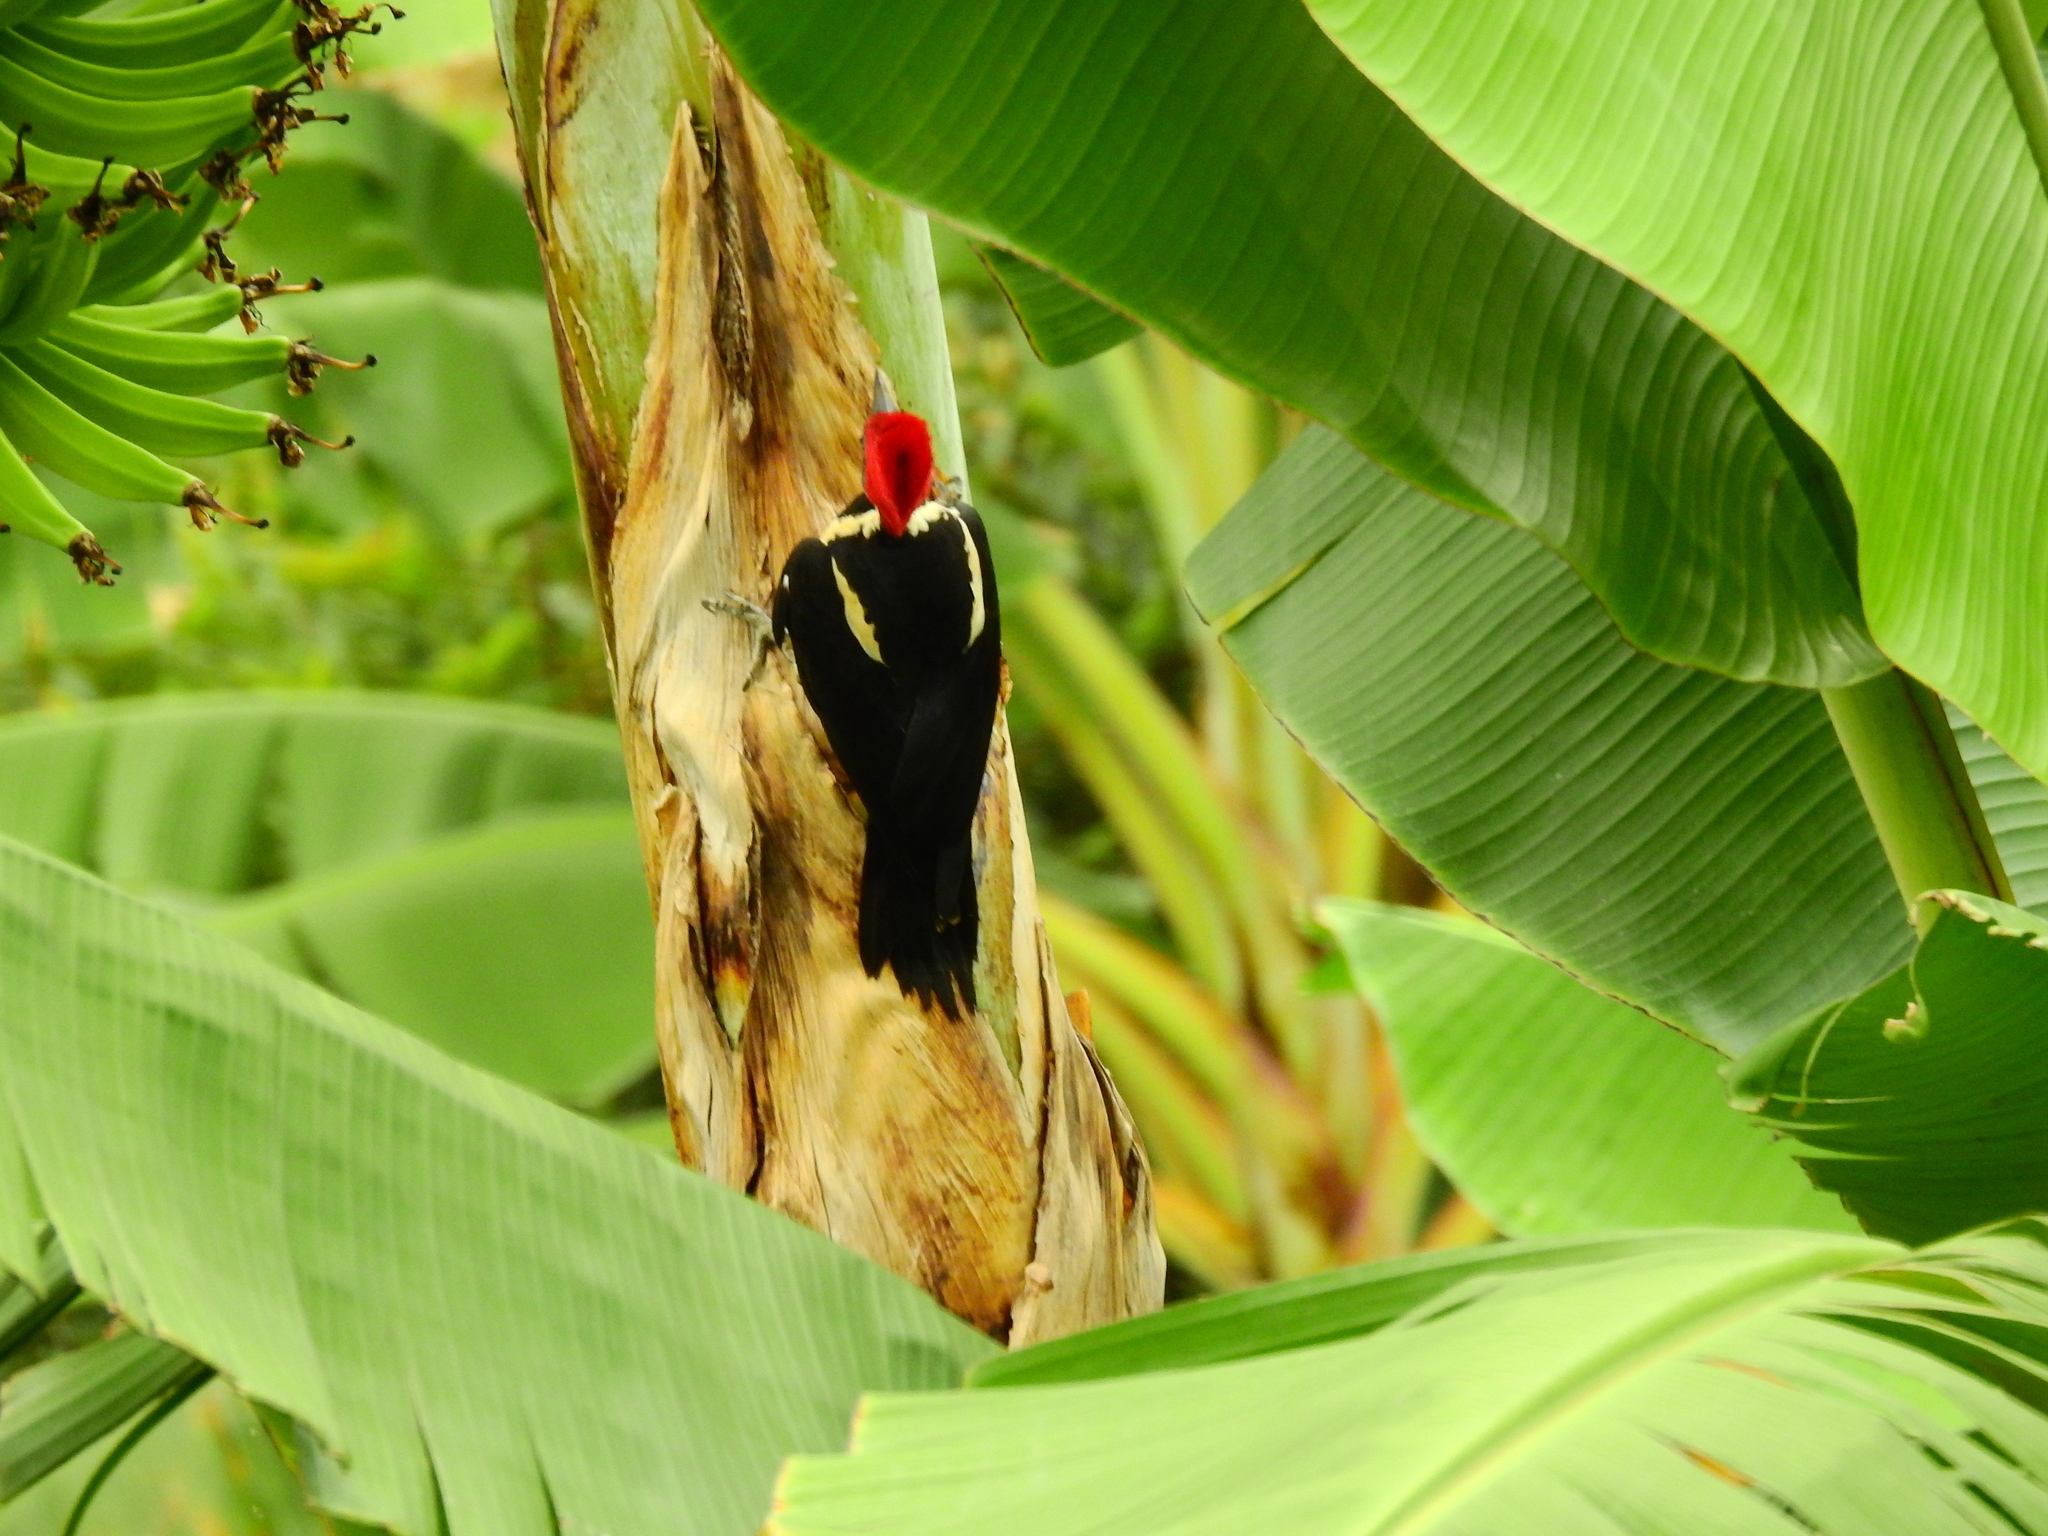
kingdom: Animalia
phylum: Chordata
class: Aves
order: Piciformes
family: Picidae
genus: Dryocopus
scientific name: Dryocopus lineatus
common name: Lineated woodpecker
